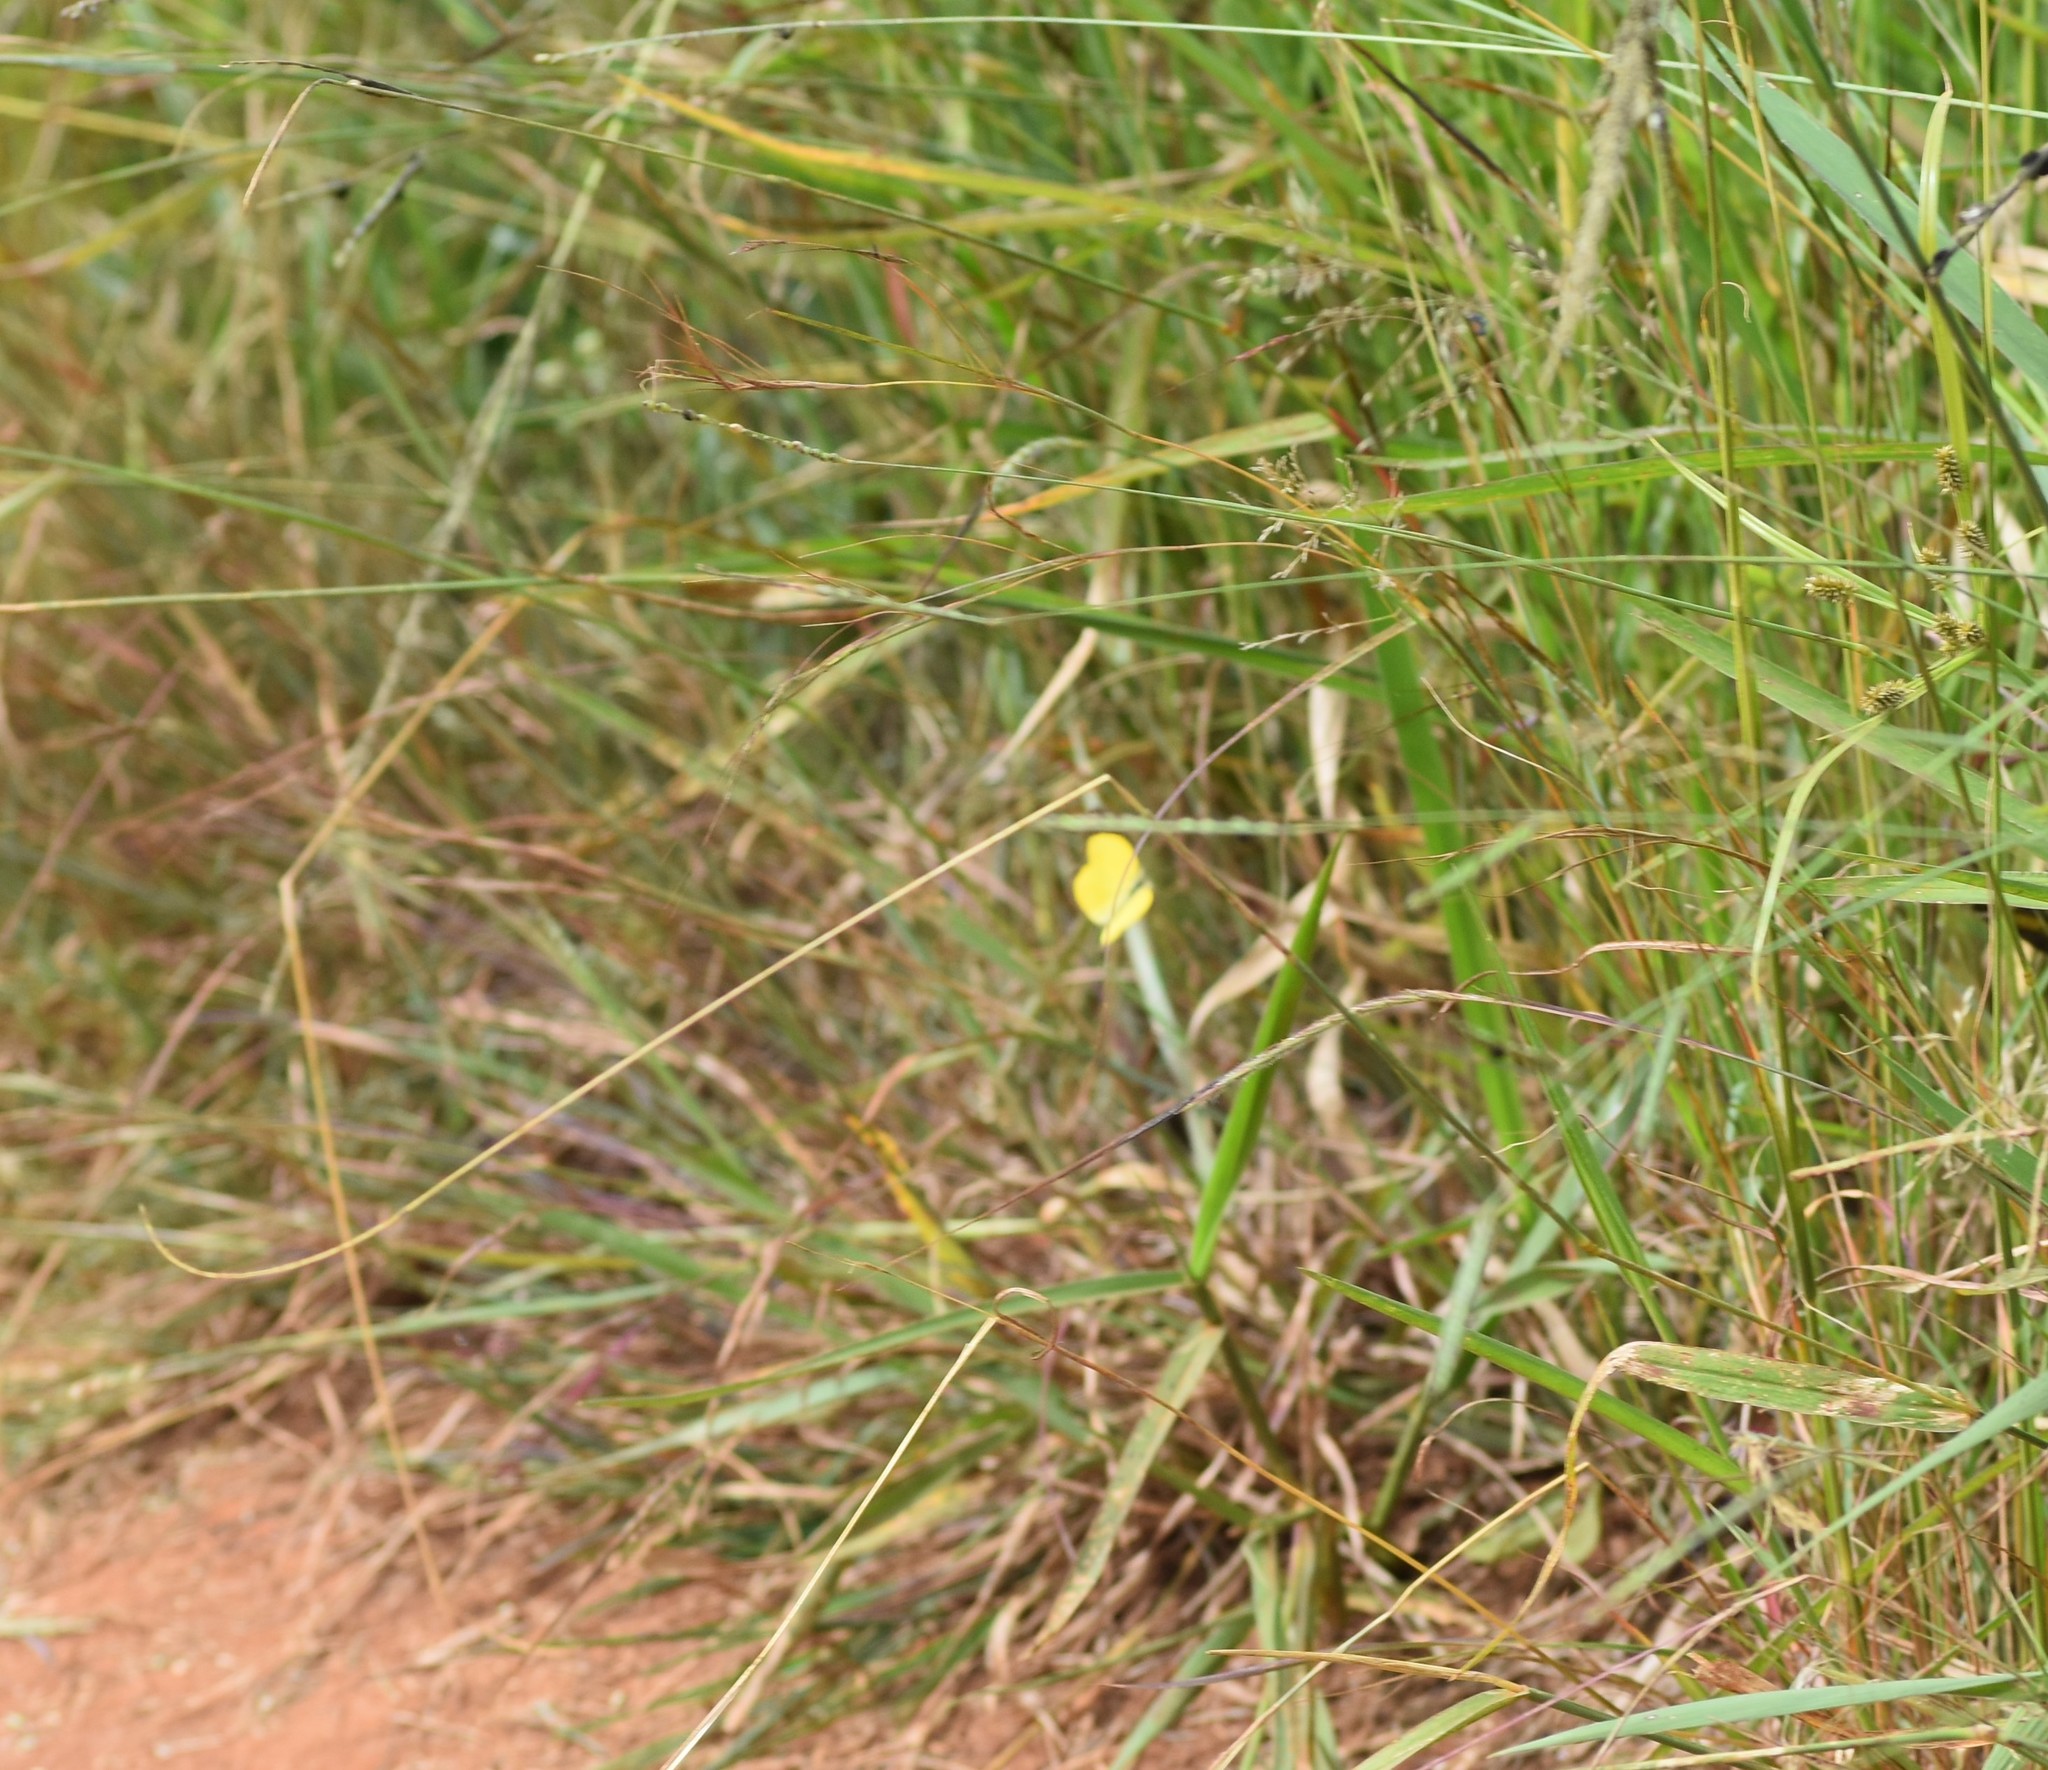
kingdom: Animalia
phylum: Arthropoda
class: Insecta
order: Lepidoptera
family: Pieridae
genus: Eurema
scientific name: Eurema brigitta
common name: Small grass yellow
